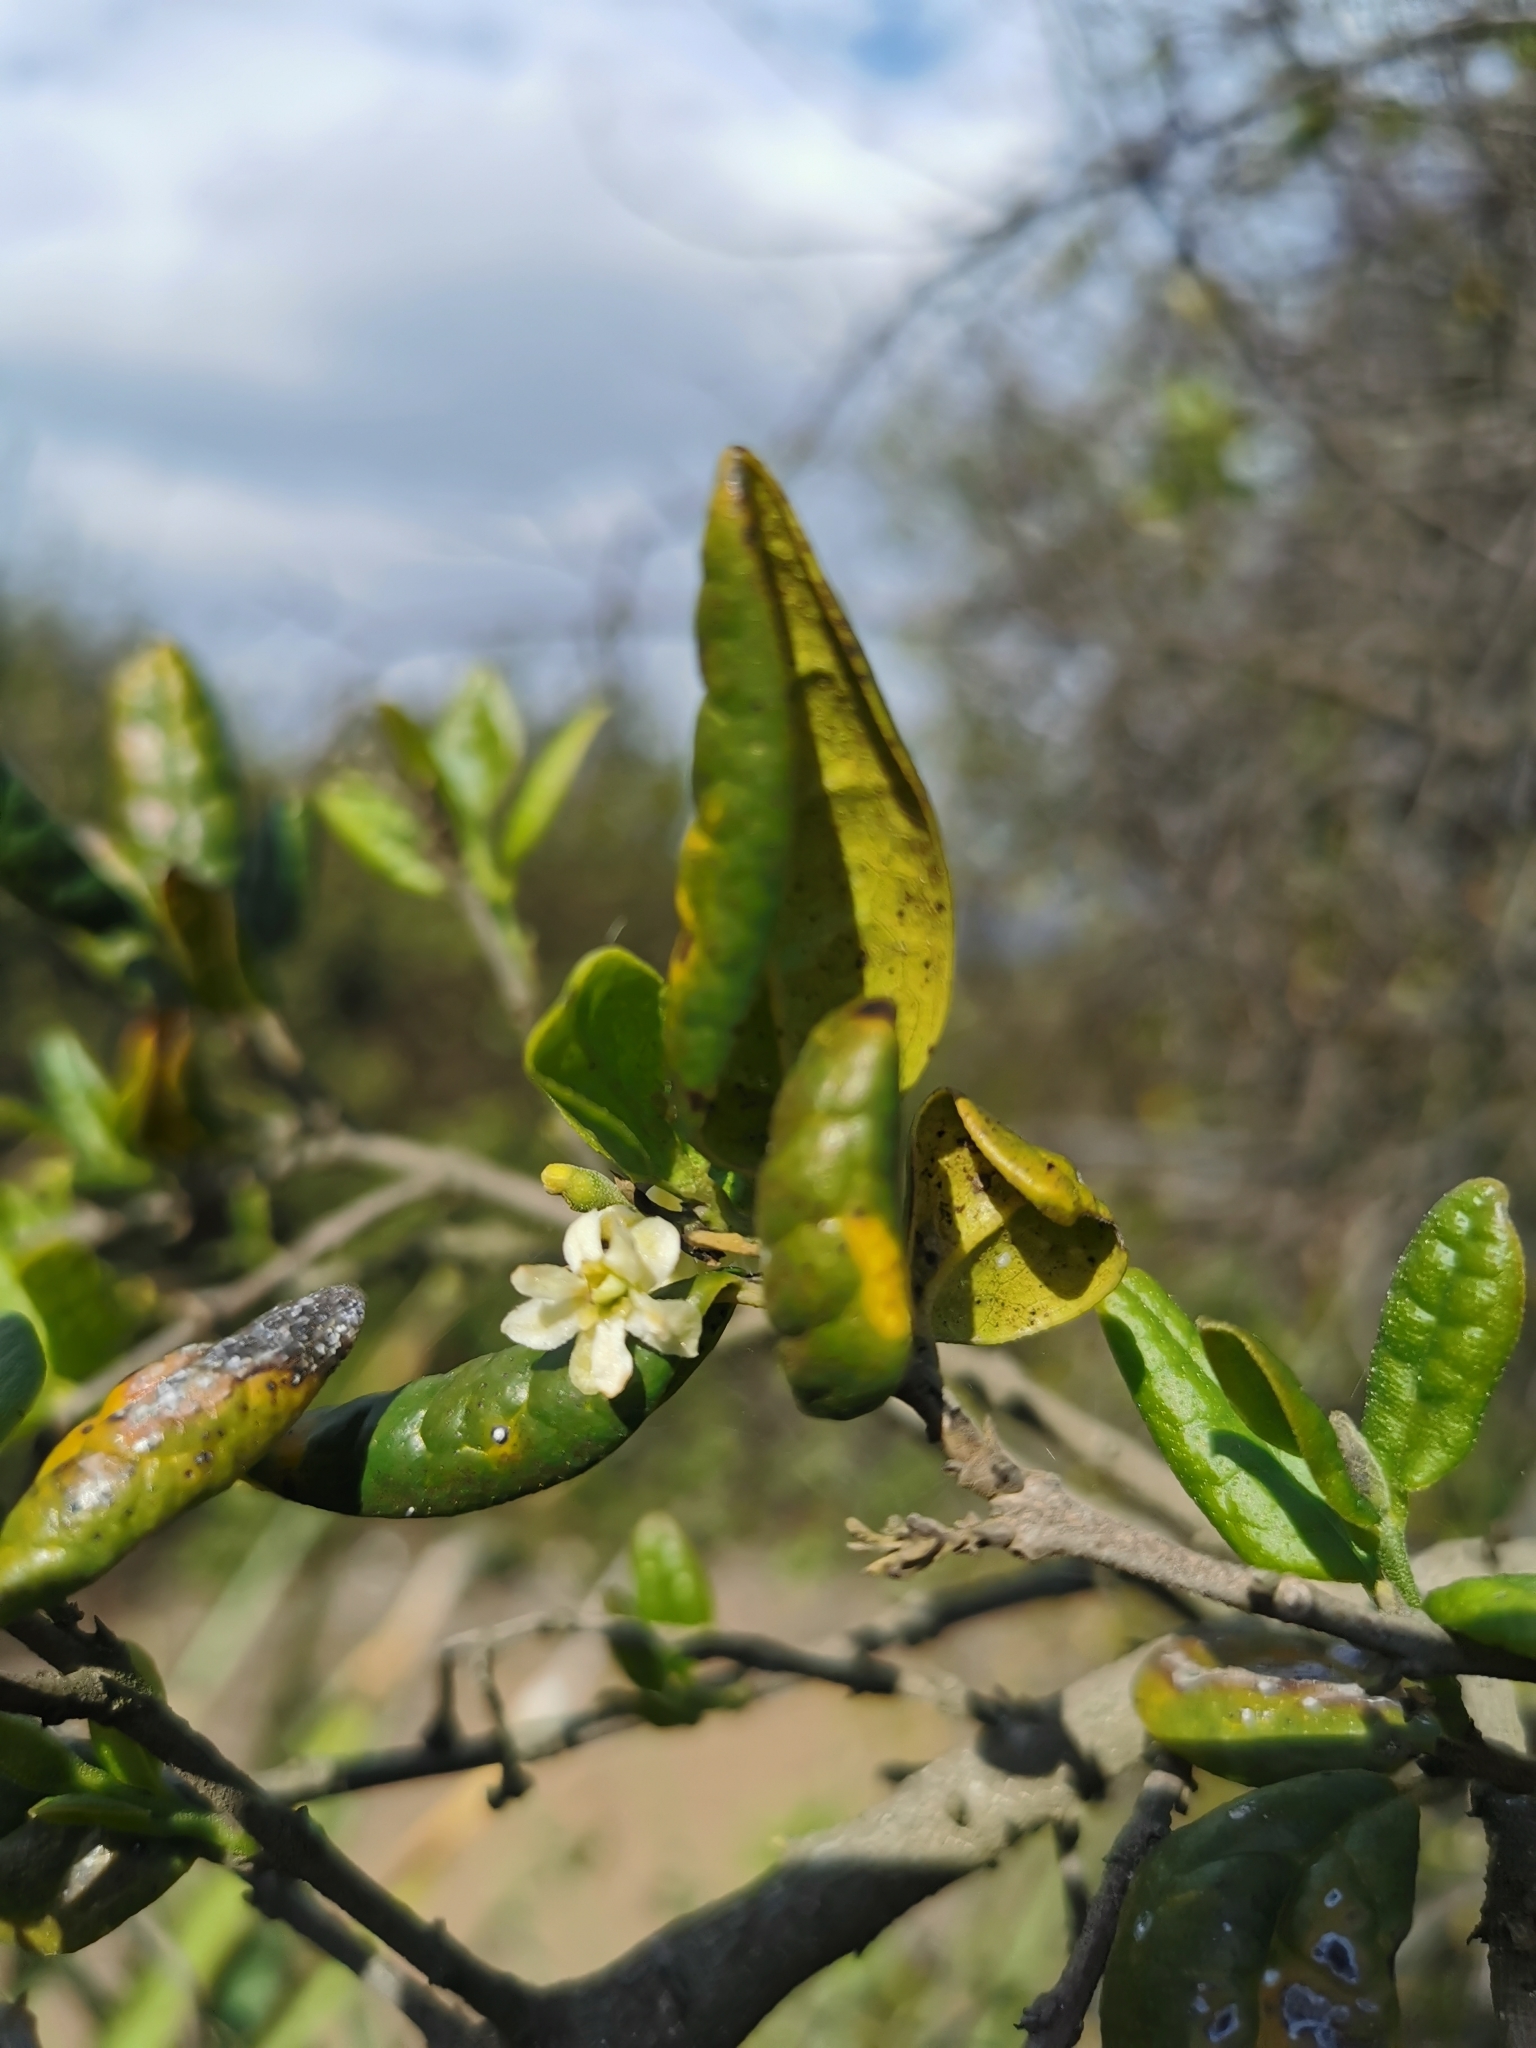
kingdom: Plantae
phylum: Tracheophyta
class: Magnoliopsida
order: Laurales
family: Monimiaceae
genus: Peumus
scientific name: Peumus boldus
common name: Boldo
